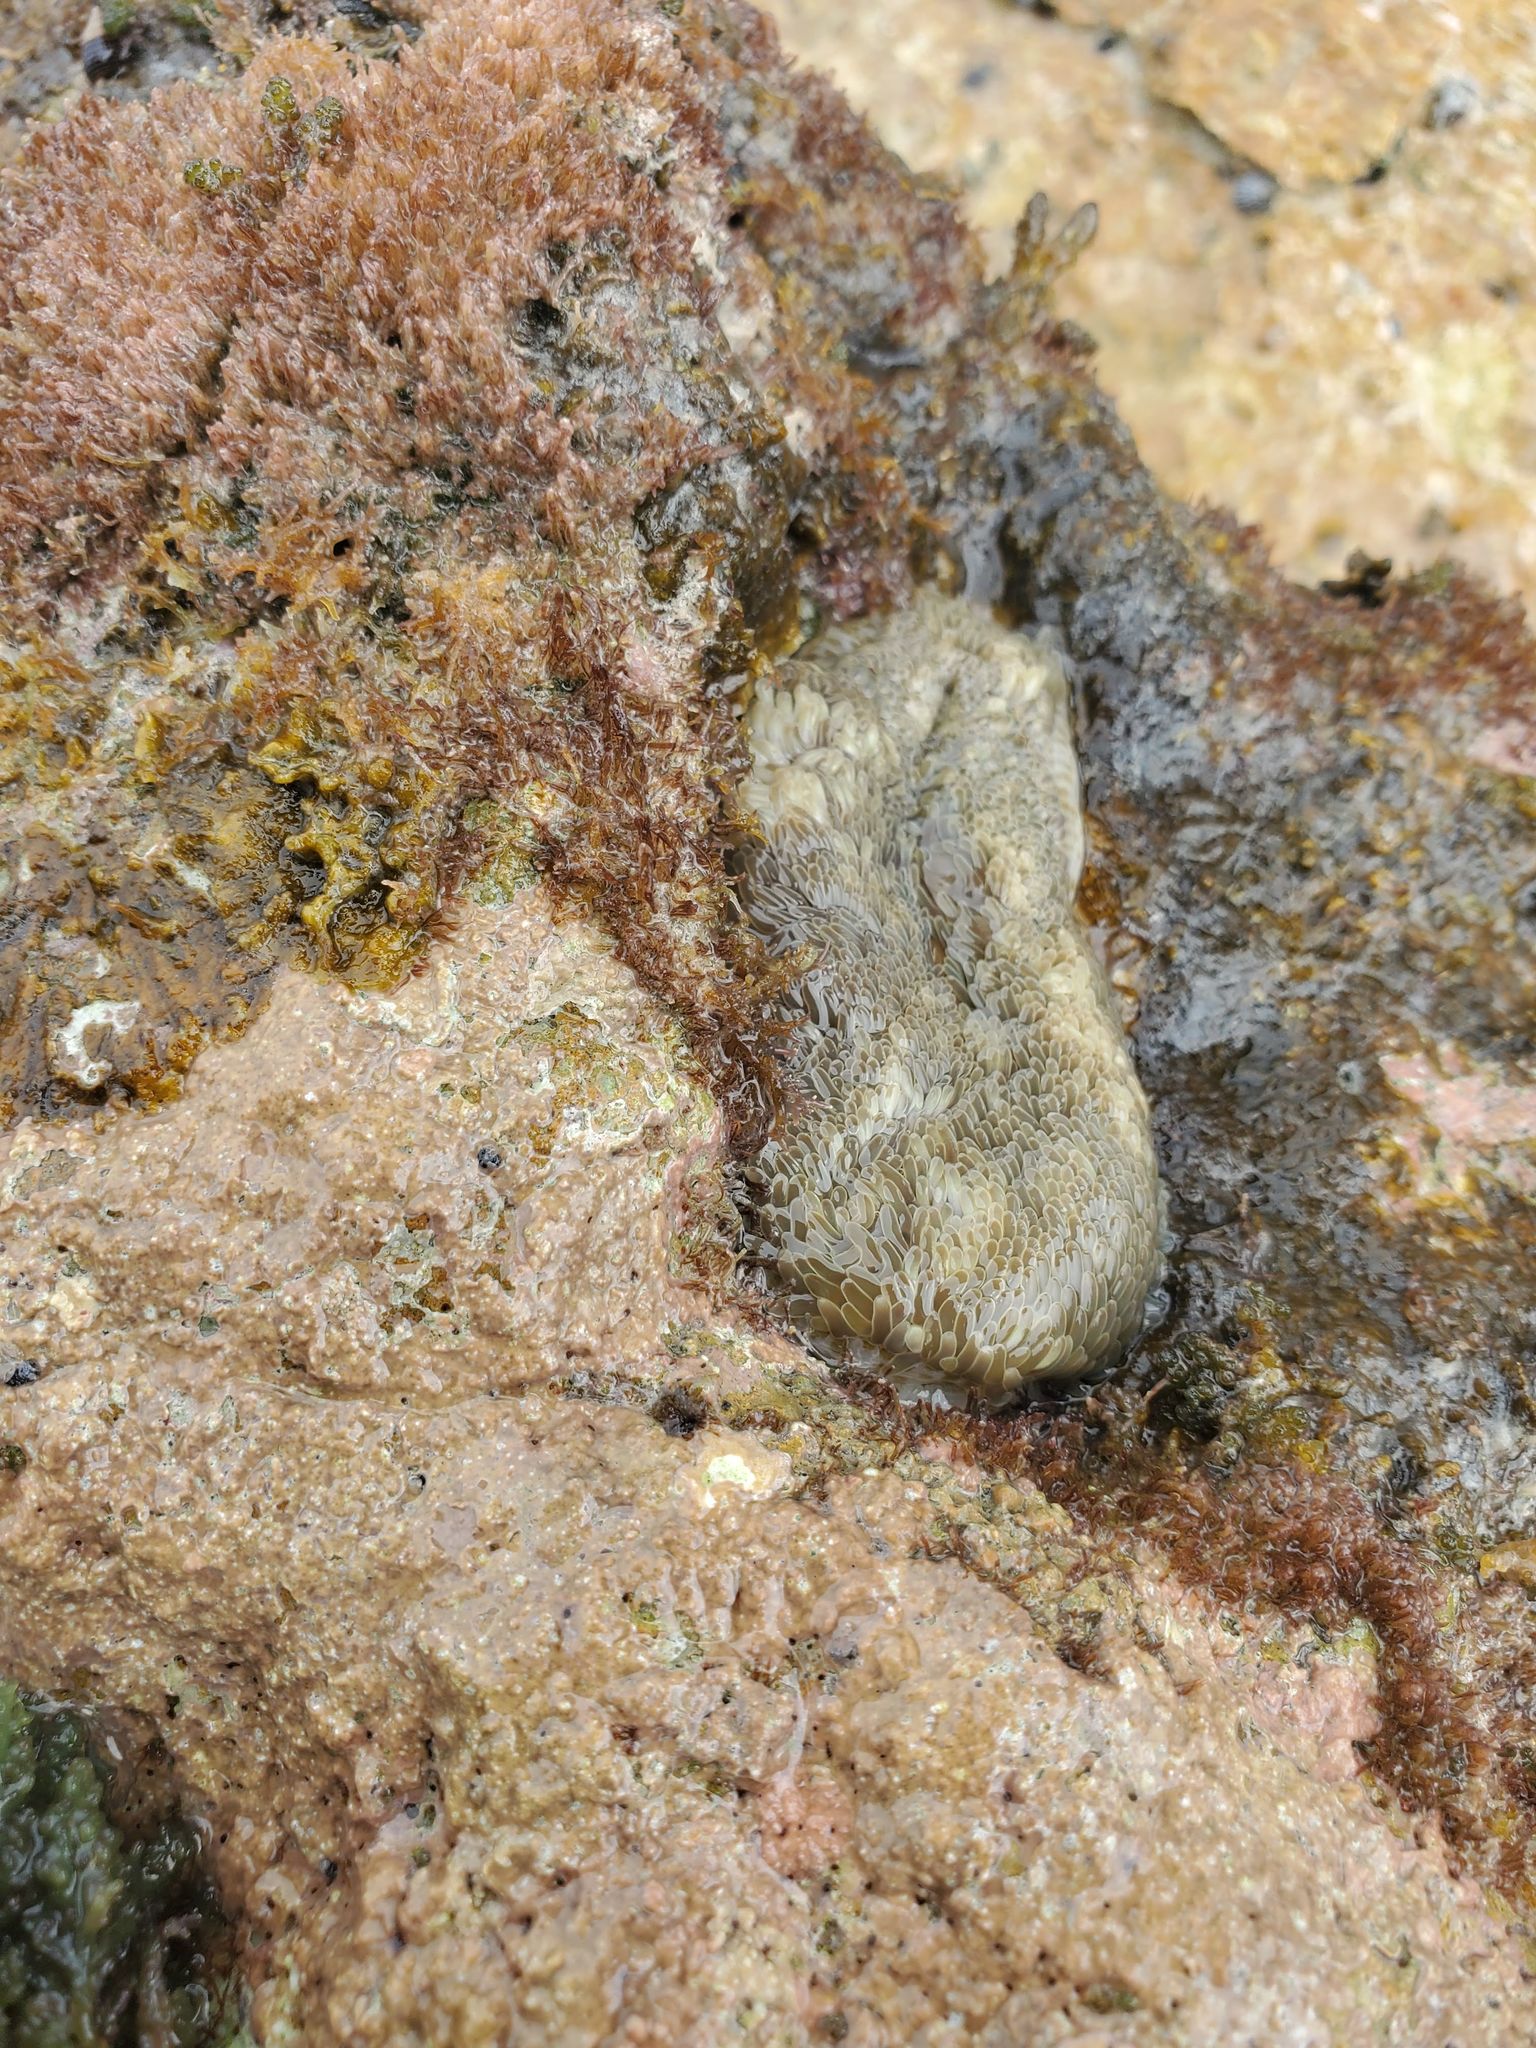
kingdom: Animalia
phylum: Cnidaria
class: Anthozoa
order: Actiniaria
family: Stichodactylidae
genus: Stichodactyla
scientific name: Stichodactyla helianthus
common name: Sun anemone
